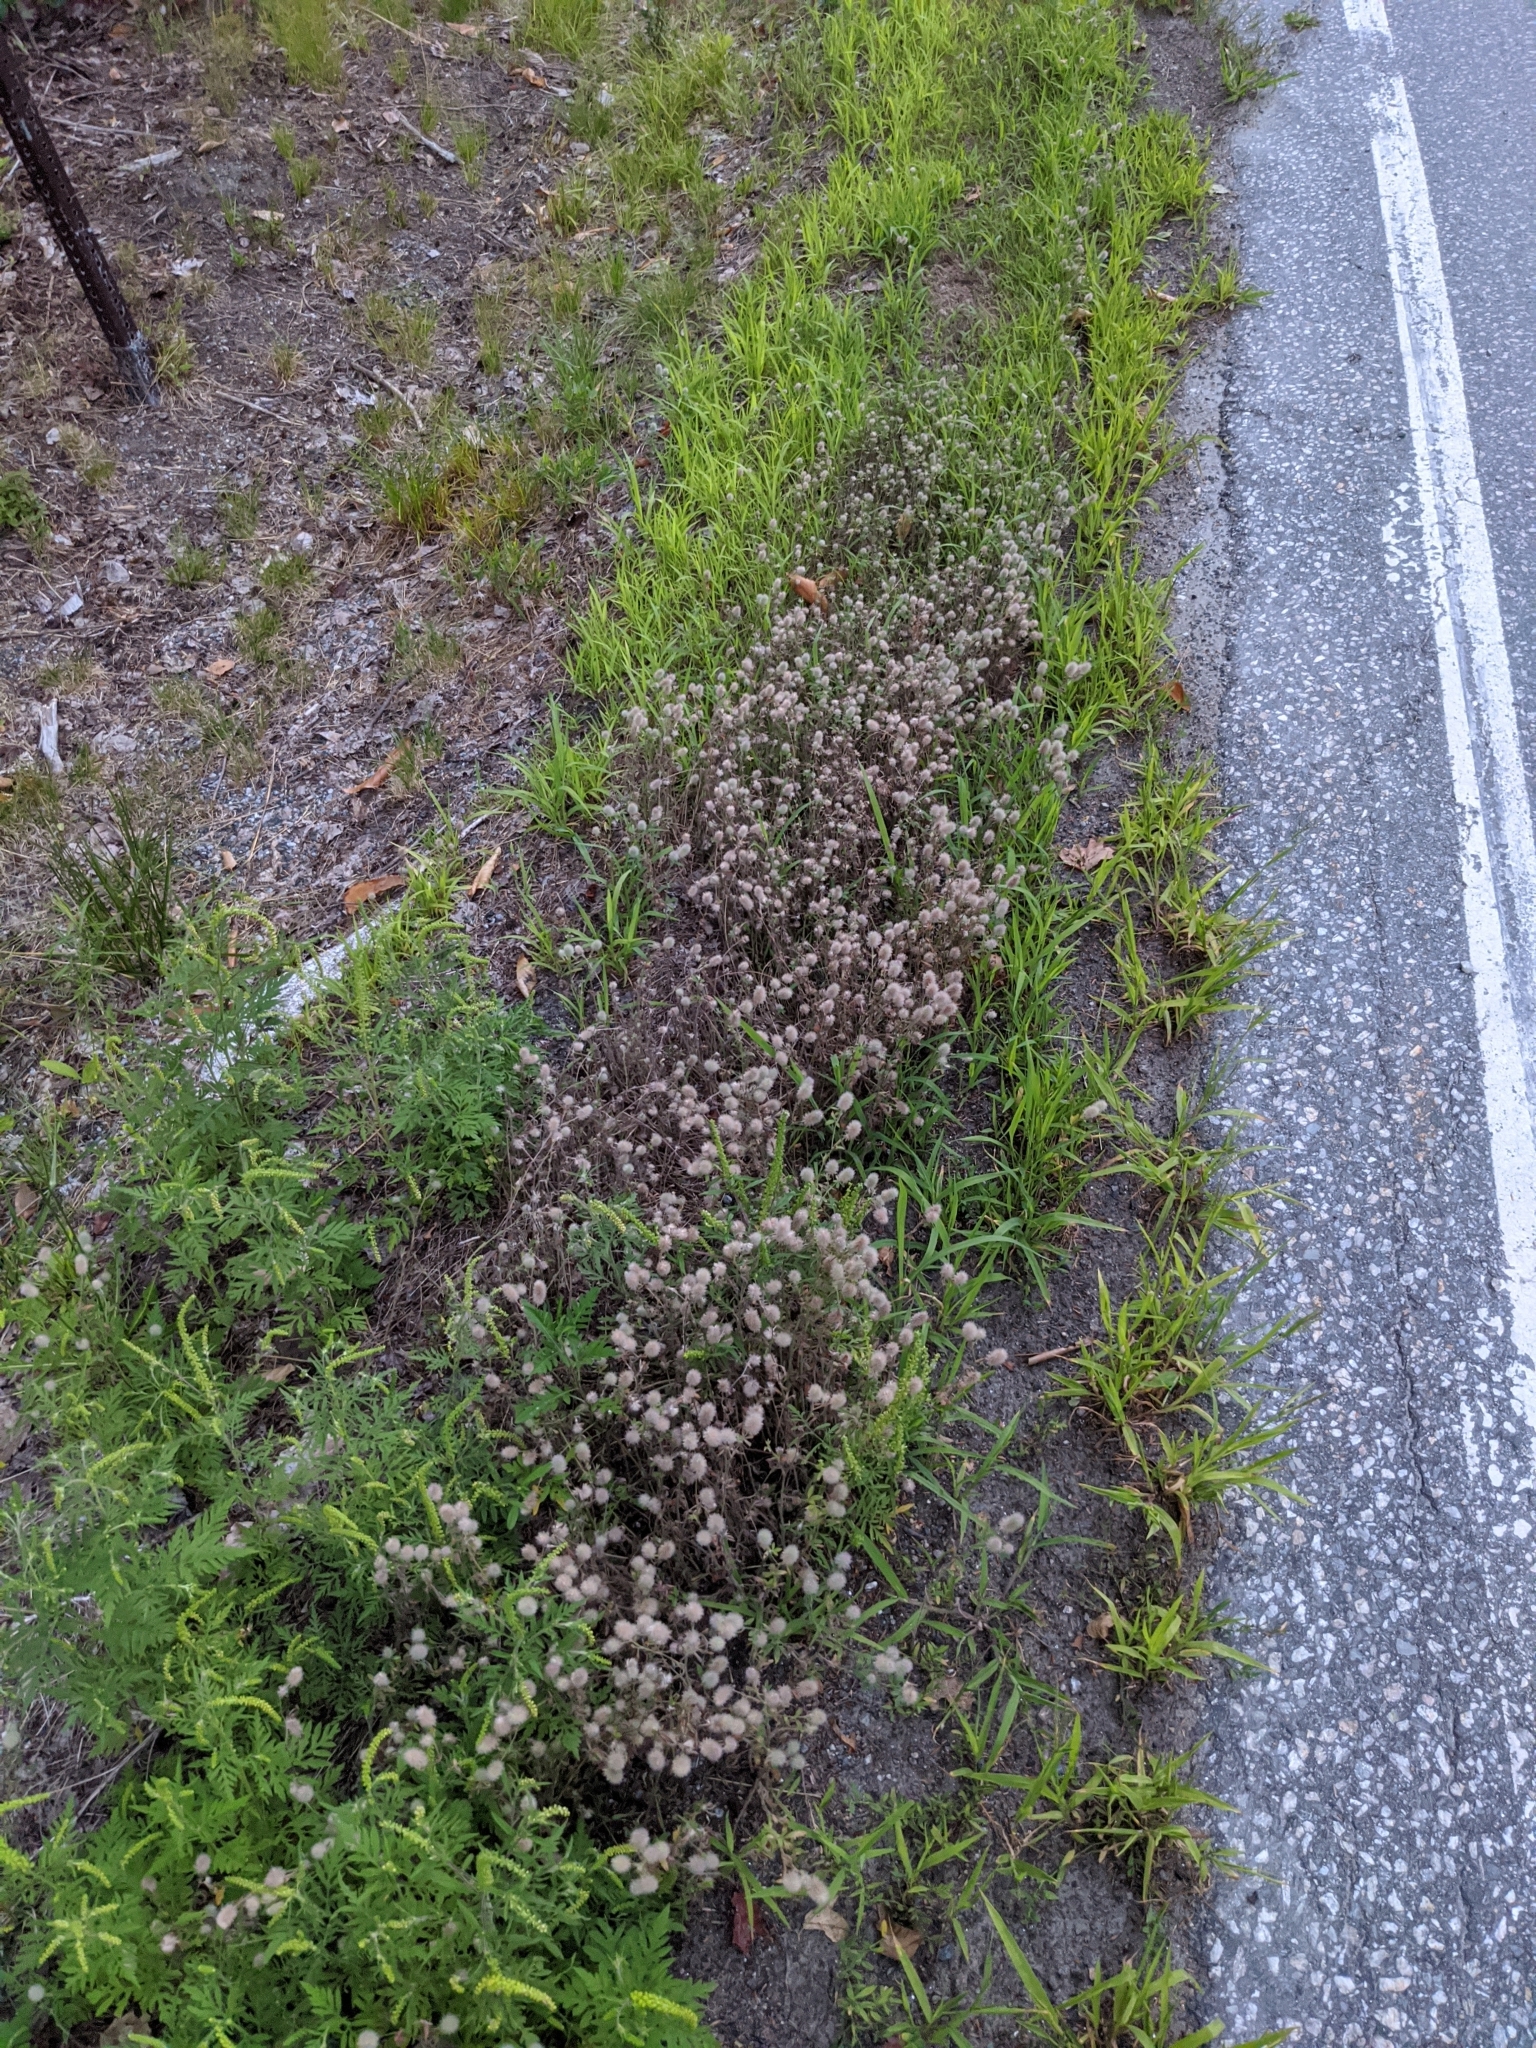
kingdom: Plantae
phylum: Tracheophyta
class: Magnoliopsida
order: Fabales
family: Fabaceae
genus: Trifolium
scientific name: Trifolium arvense
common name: Hare's-foot clover
